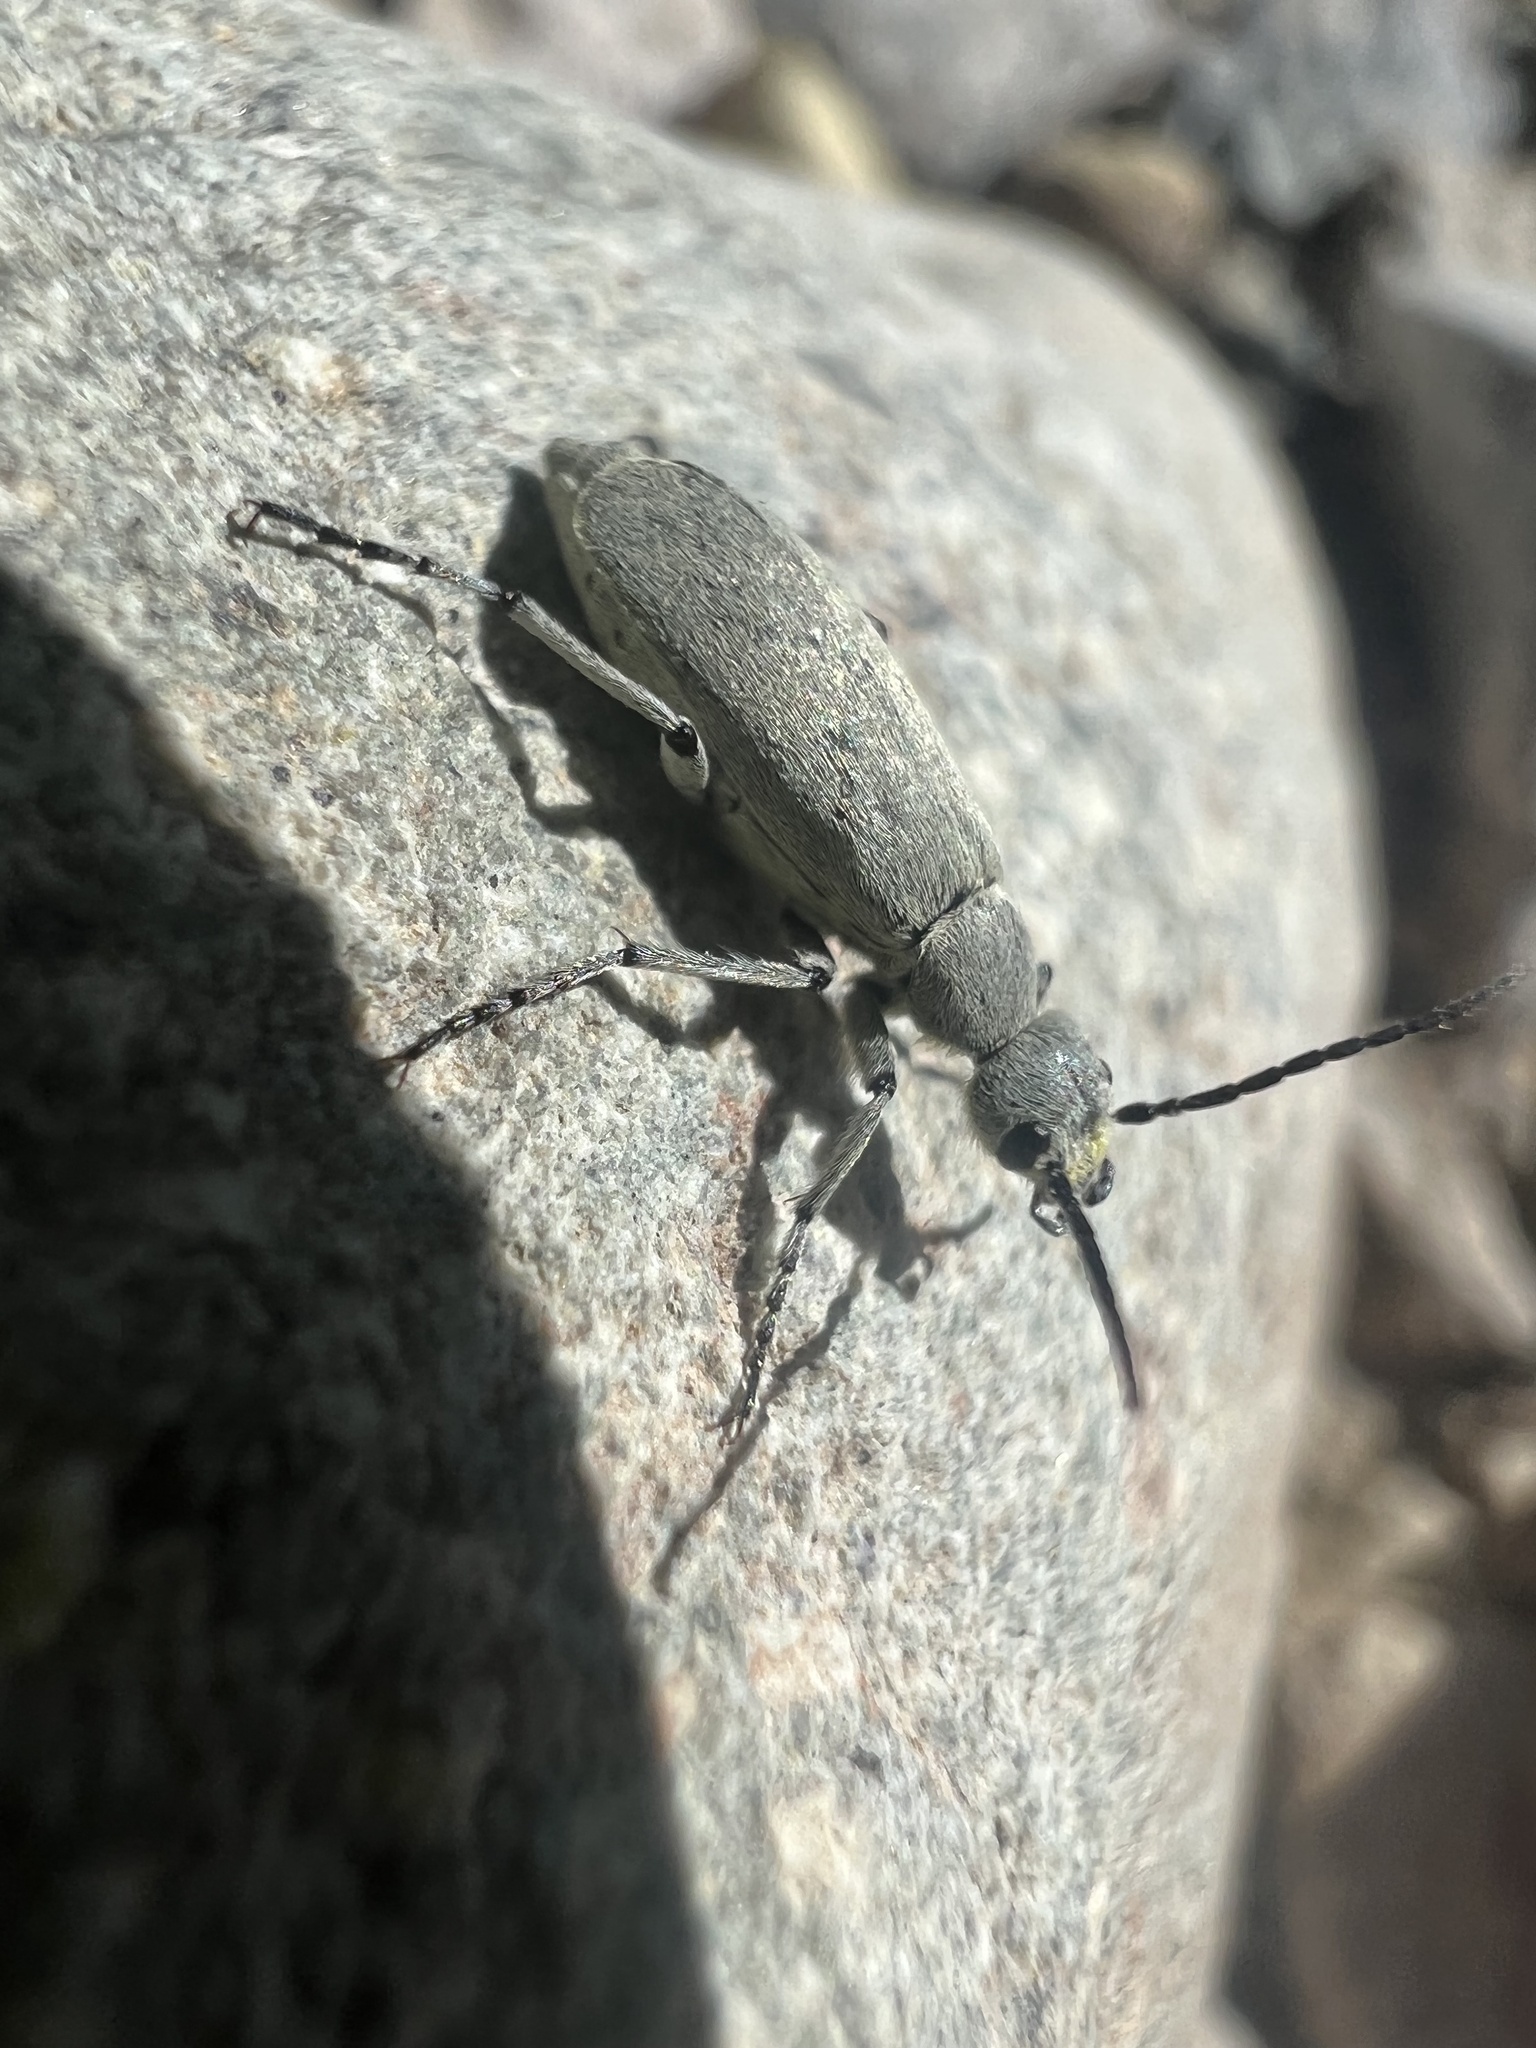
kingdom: Animalia
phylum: Arthropoda
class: Insecta
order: Coleoptera
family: Meloidae
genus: Epicauta
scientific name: Epicauta aspera
